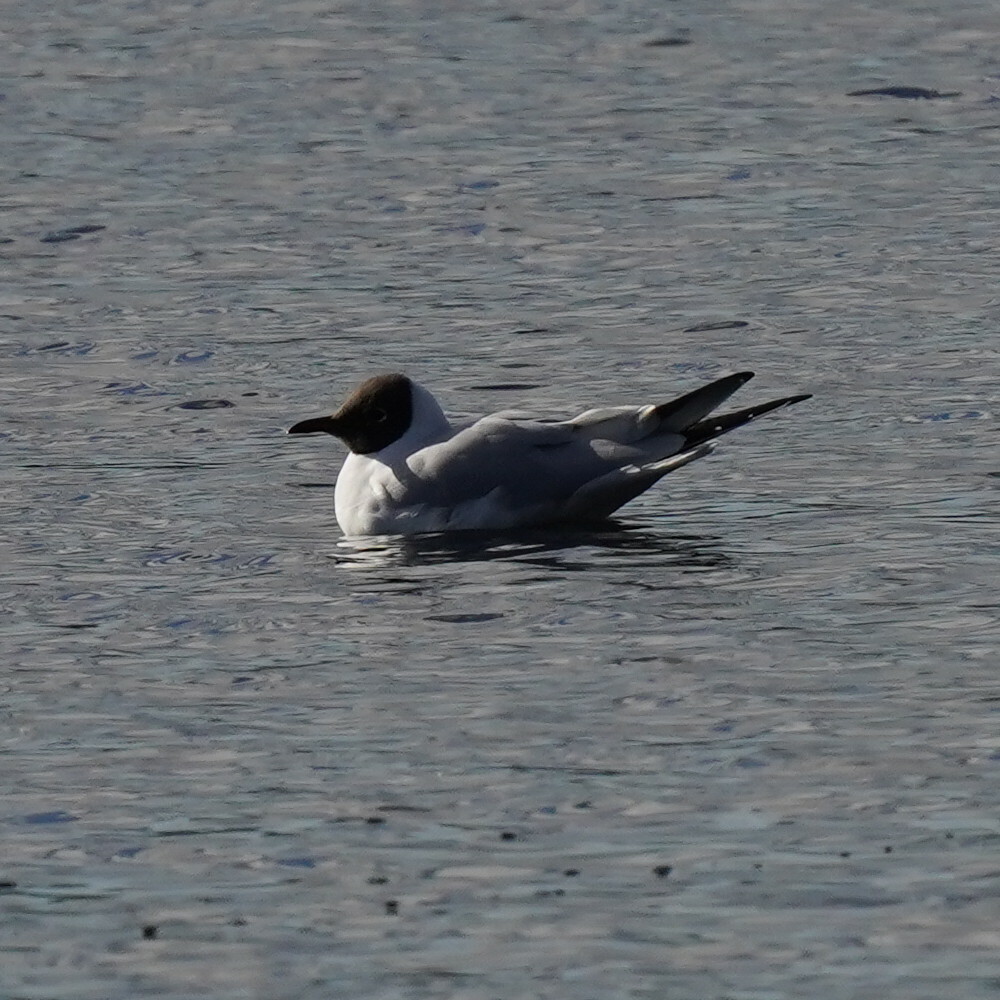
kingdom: Animalia
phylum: Chordata
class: Aves
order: Charadriiformes
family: Laridae
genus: Chroicocephalus
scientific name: Chroicocephalus ridibundus
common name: Black-headed gull
